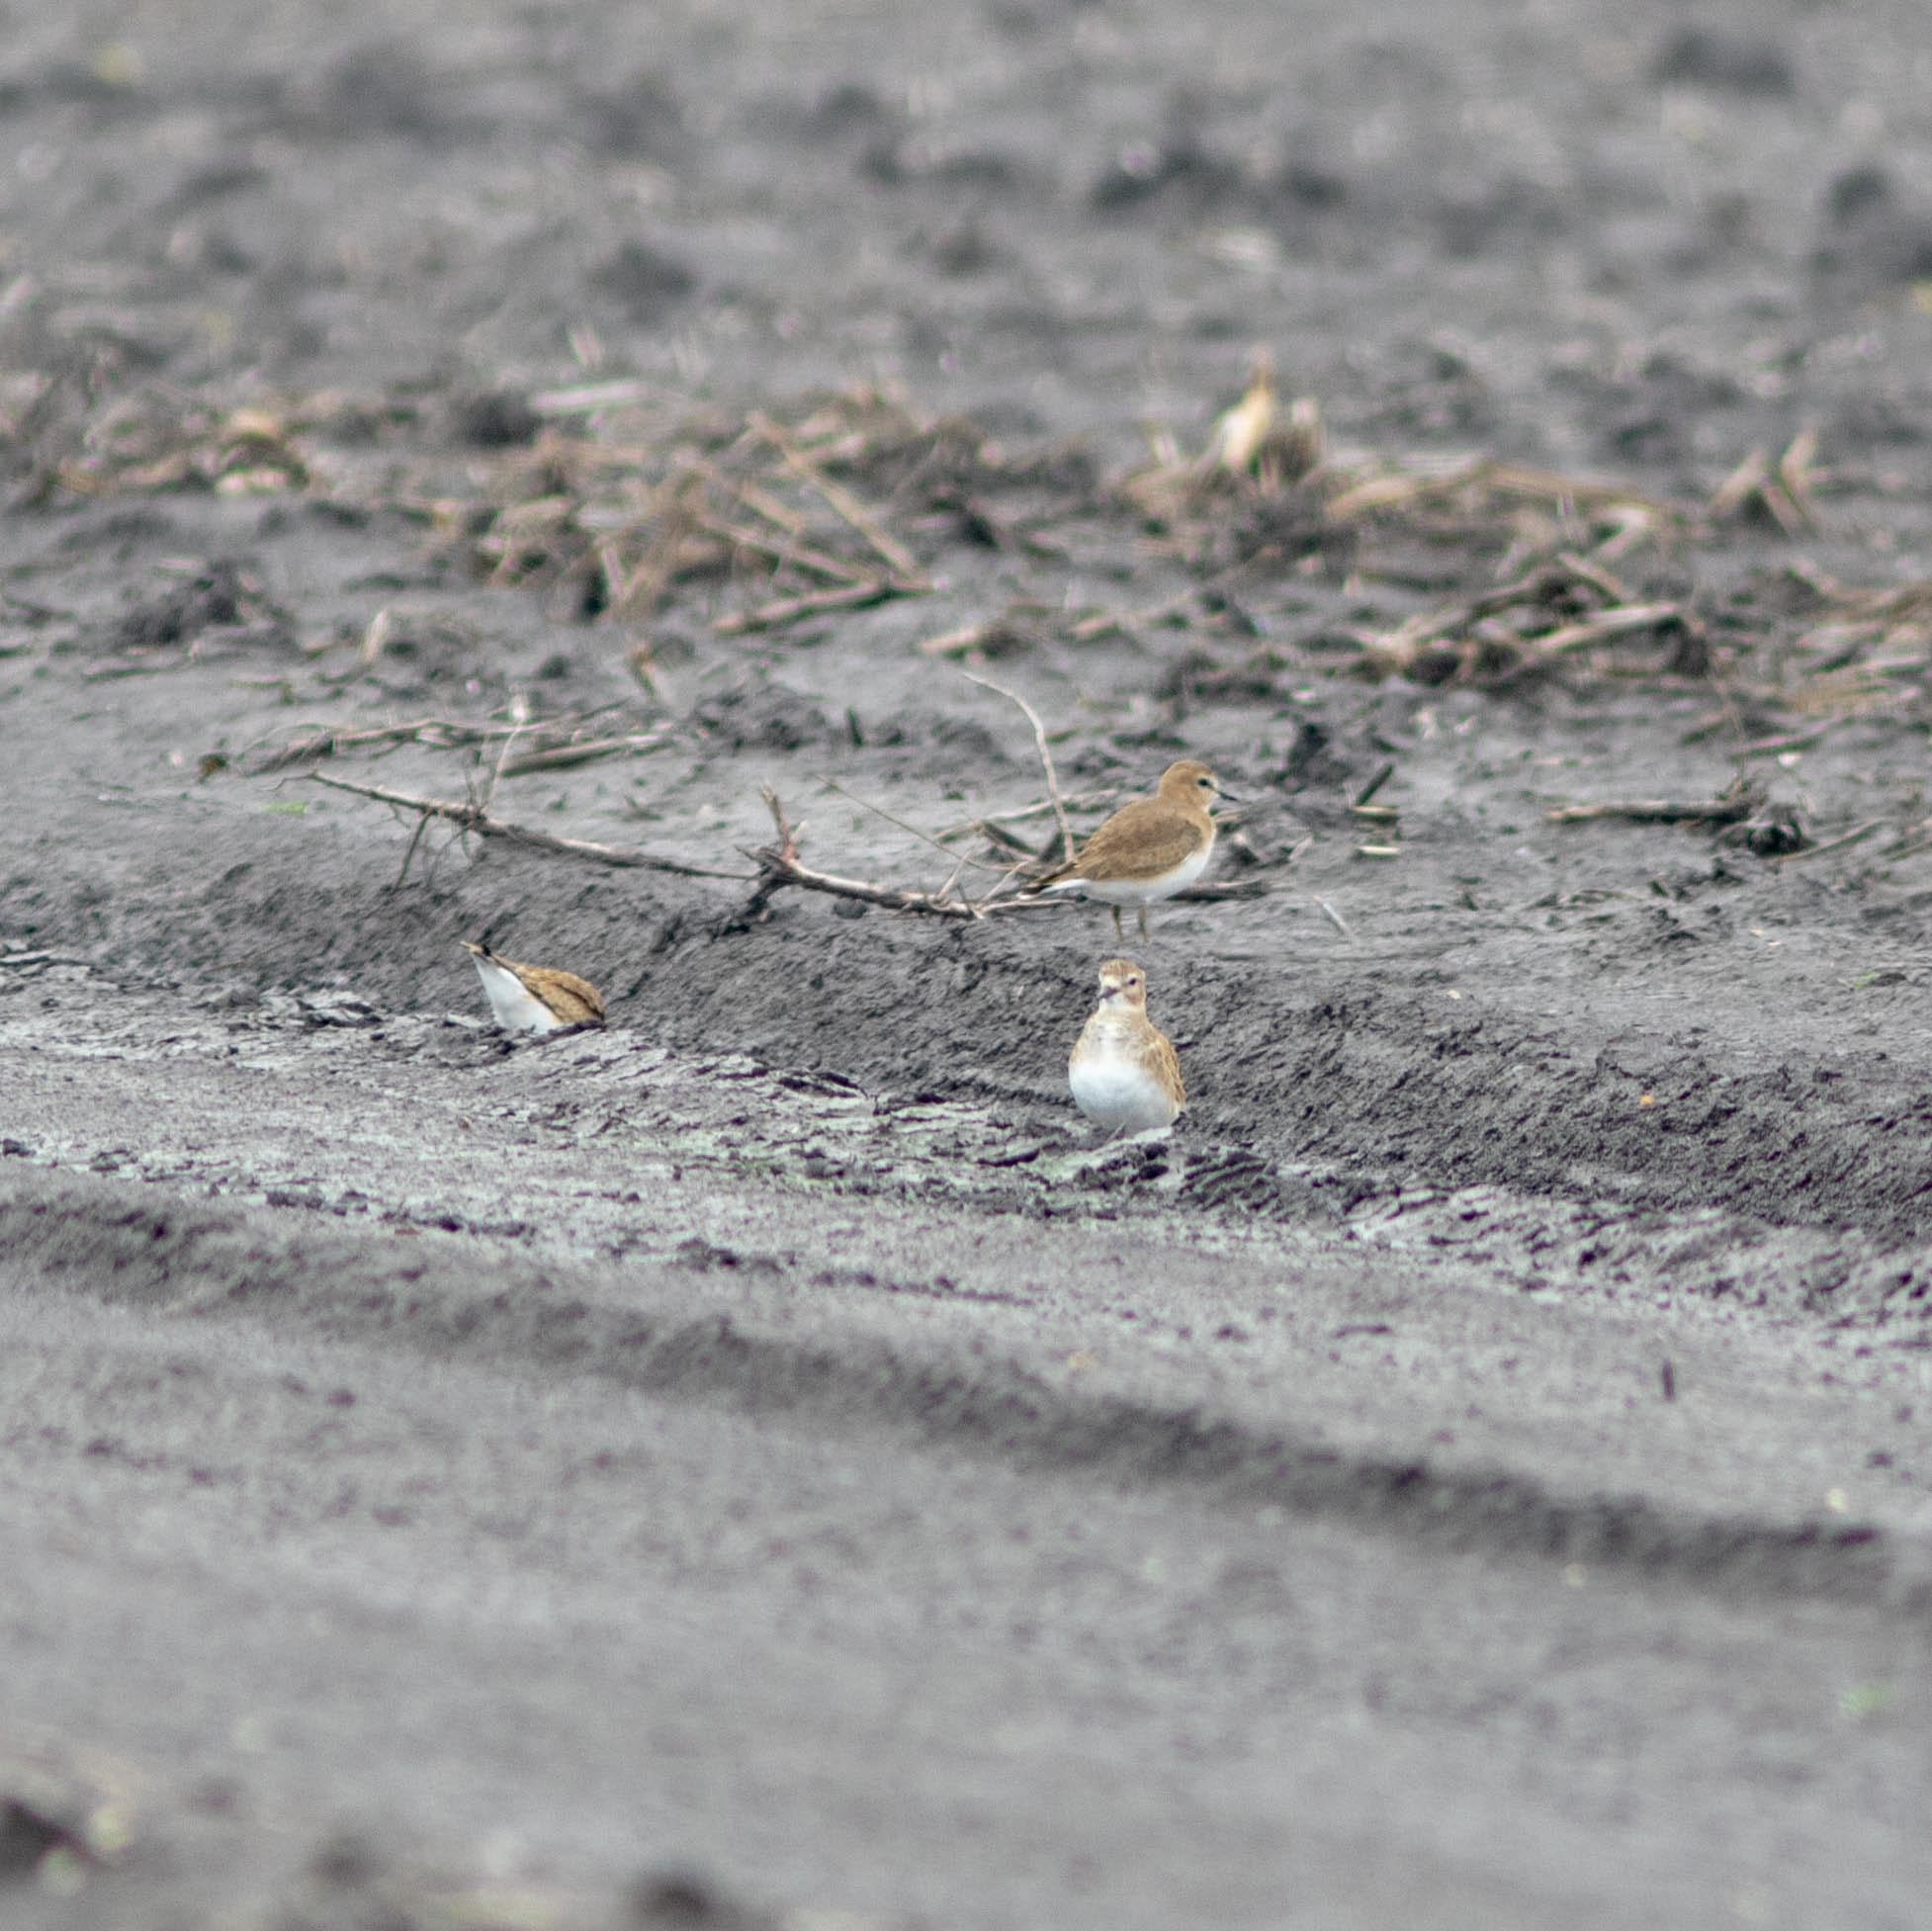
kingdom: Animalia
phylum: Chordata
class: Aves
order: Charadriiformes
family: Charadriidae
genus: Anarhynchus
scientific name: Anarhynchus
